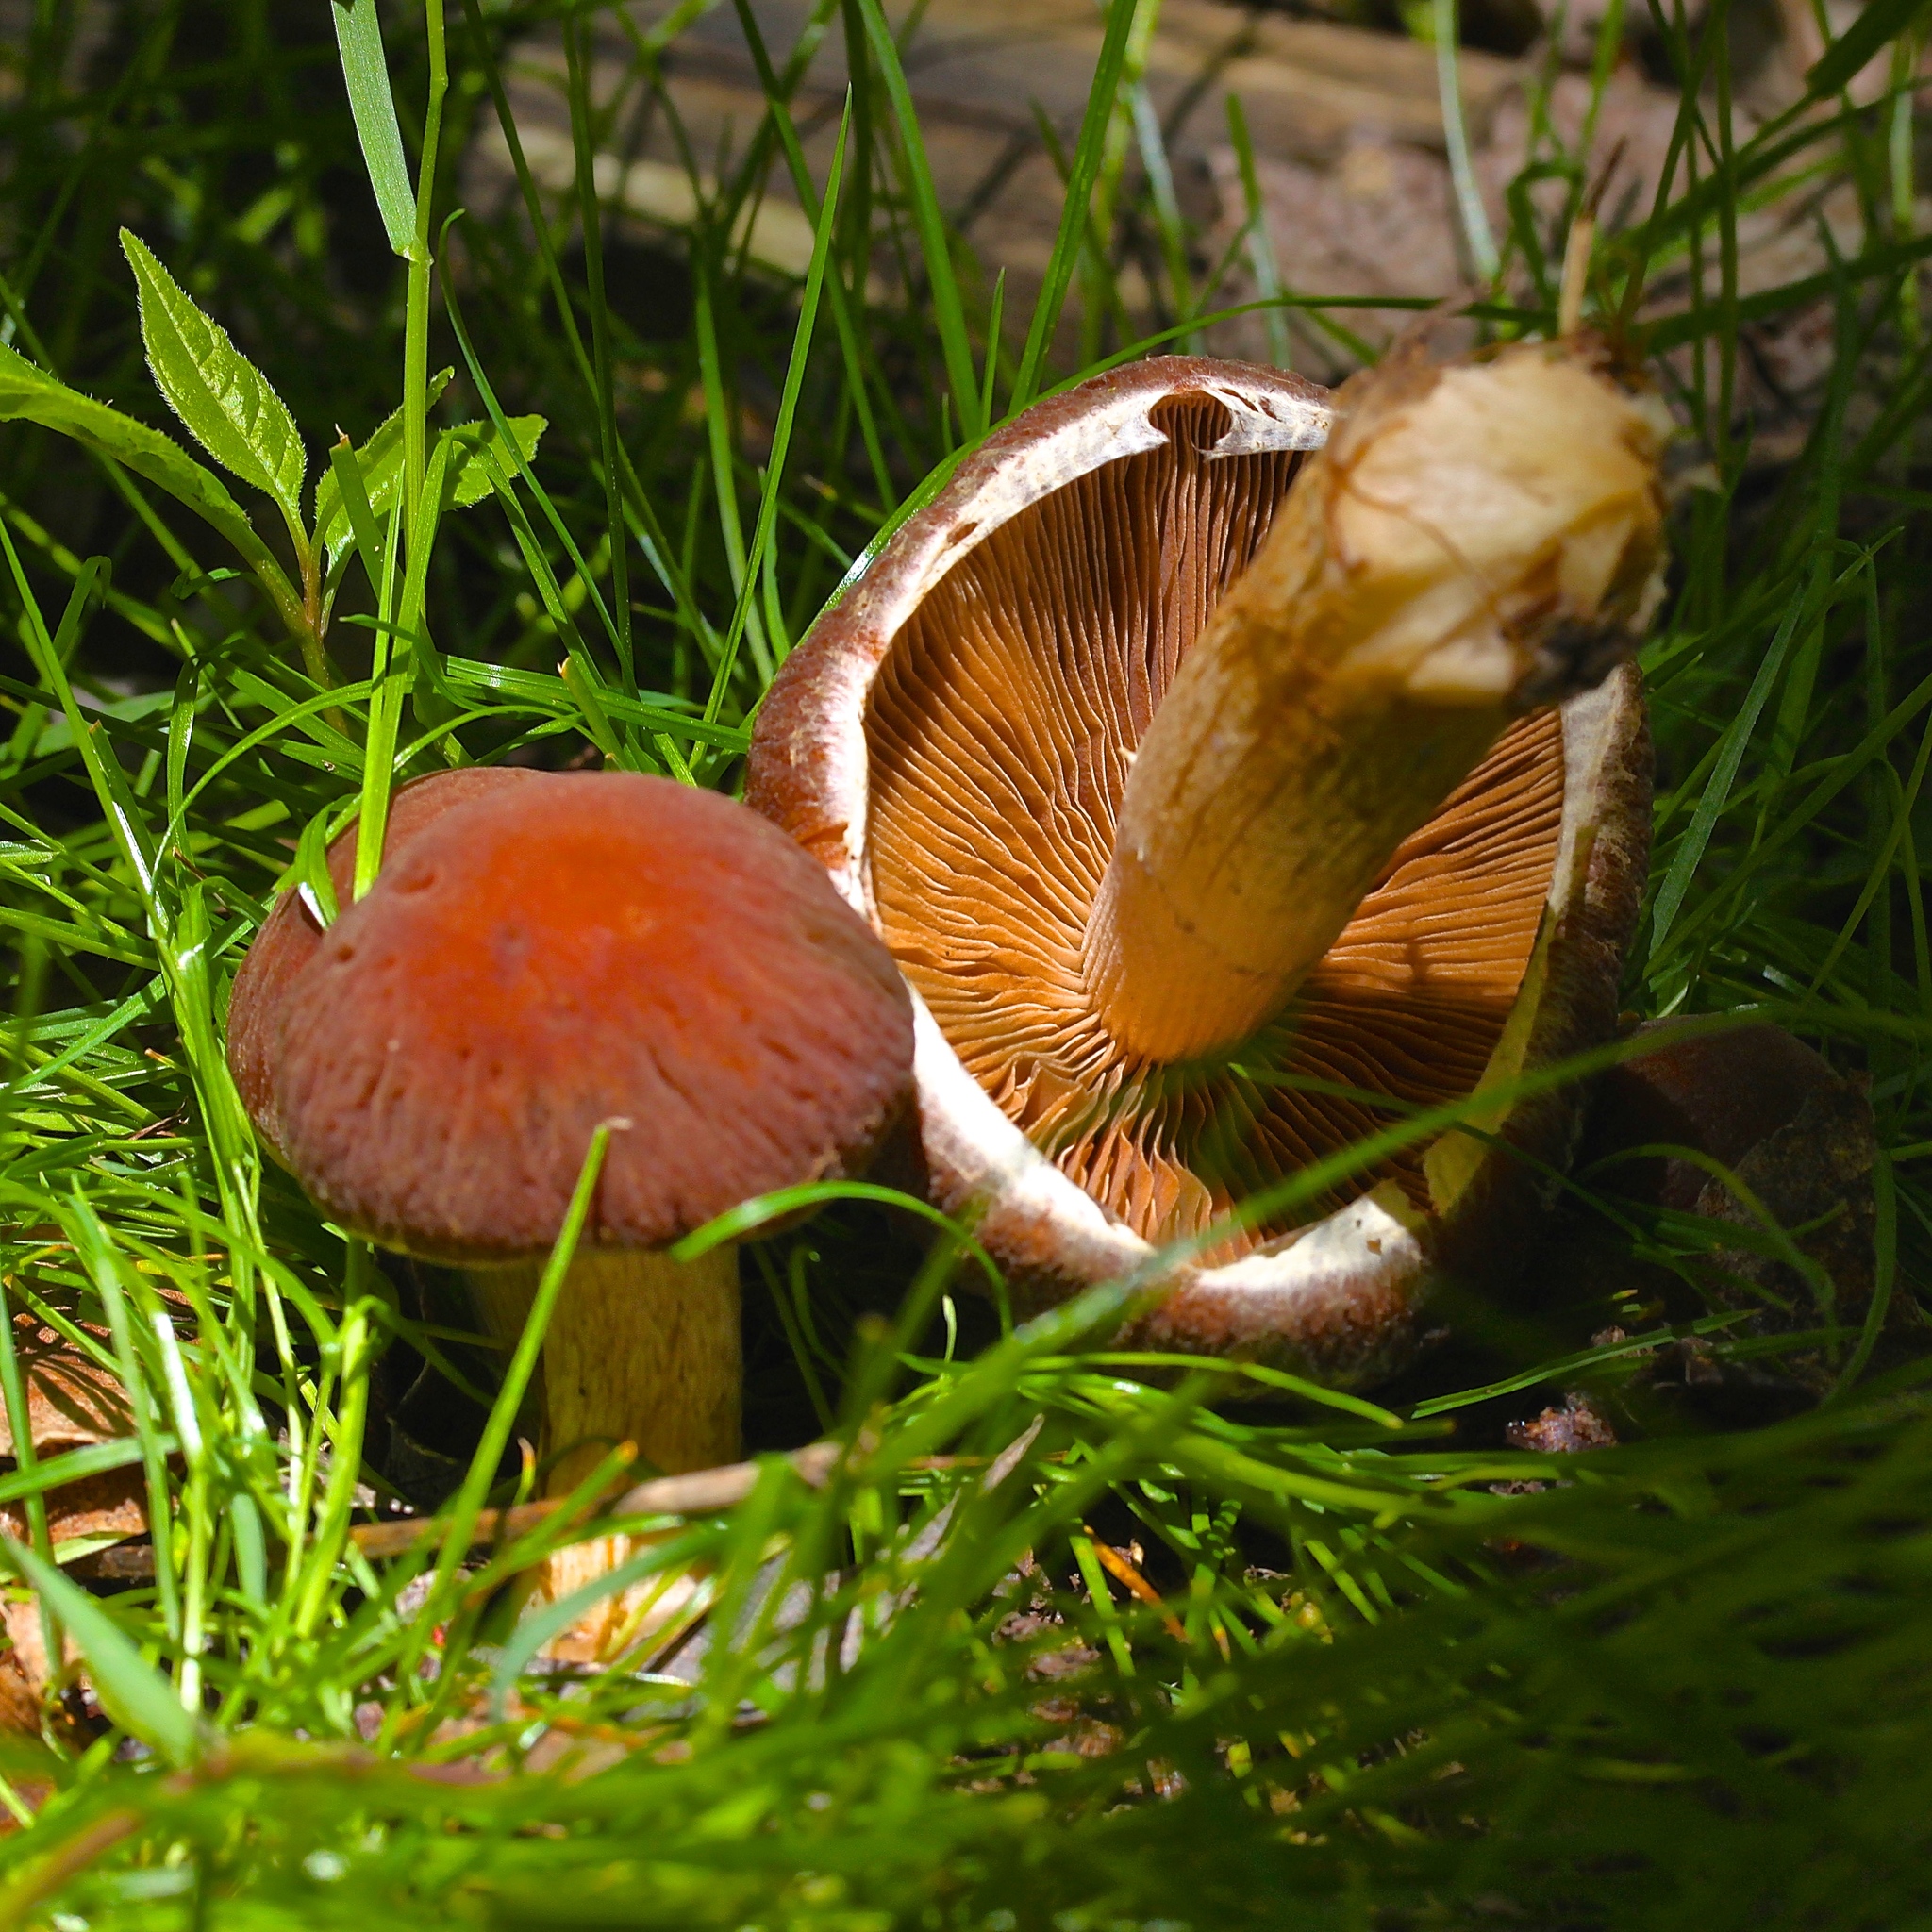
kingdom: Fungi
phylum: Basidiomycota
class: Agaricomycetes
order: Agaricales
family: Psathyrellaceae
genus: Typhrasa
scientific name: Typhrasa gossypina
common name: Wrinkled psathyrella
